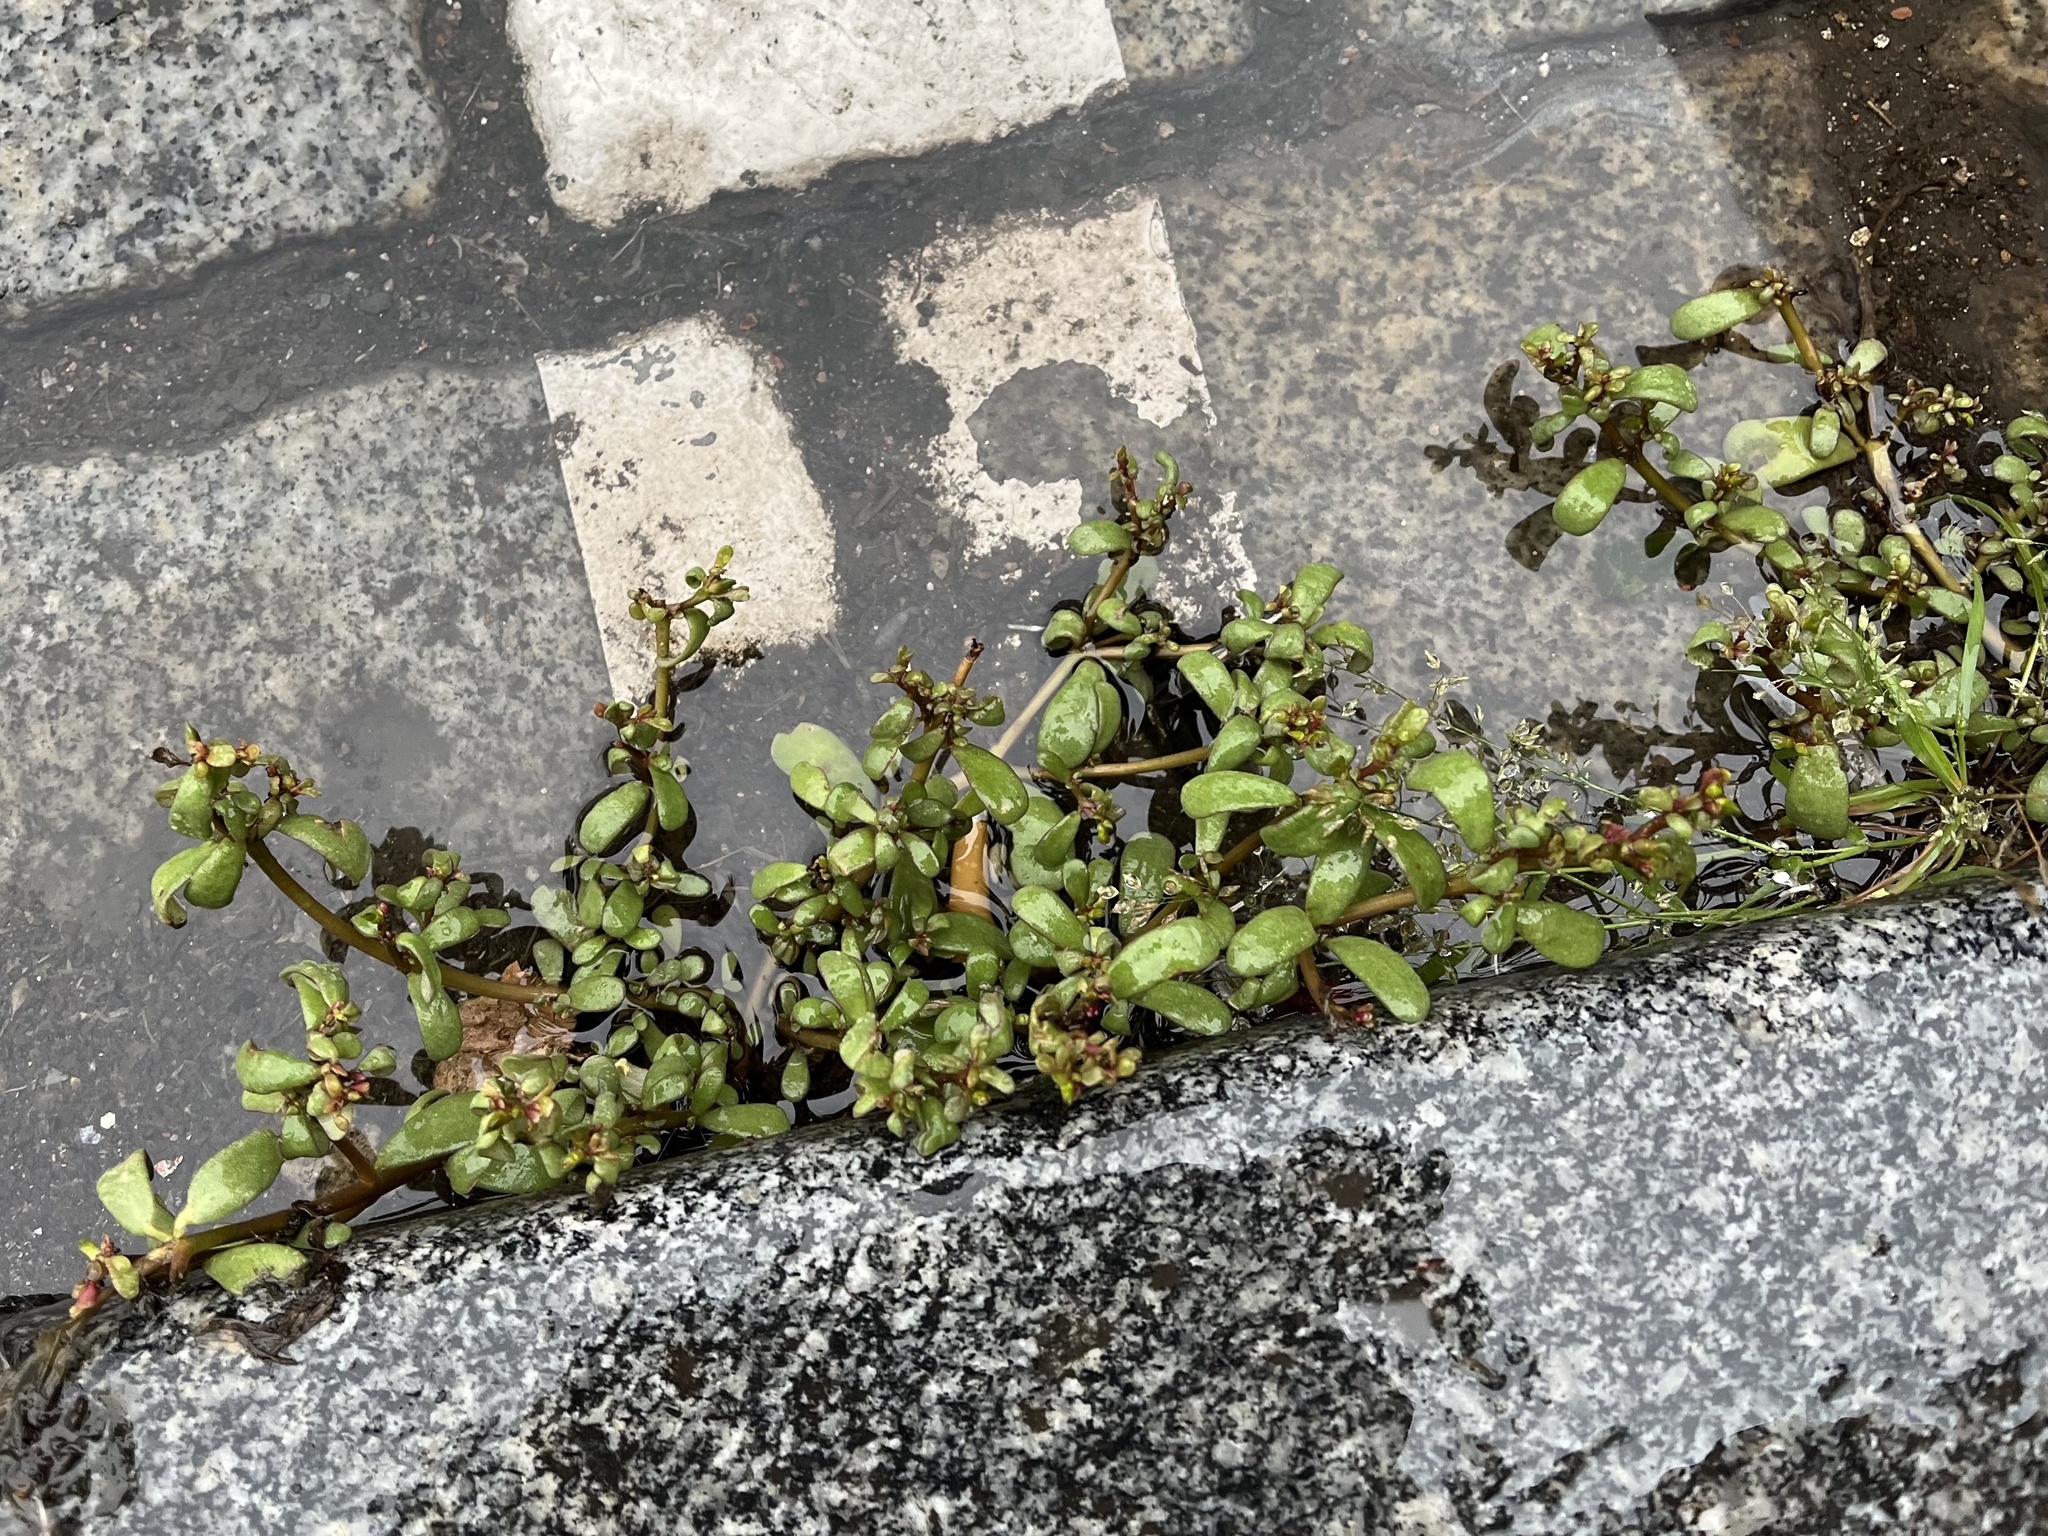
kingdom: Plantae
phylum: Tracheophyta
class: Magnoliopsida
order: Caryophyllales
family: Portulacaceae
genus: Portulaca
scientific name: Portulaca oleracea
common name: Common purslane
